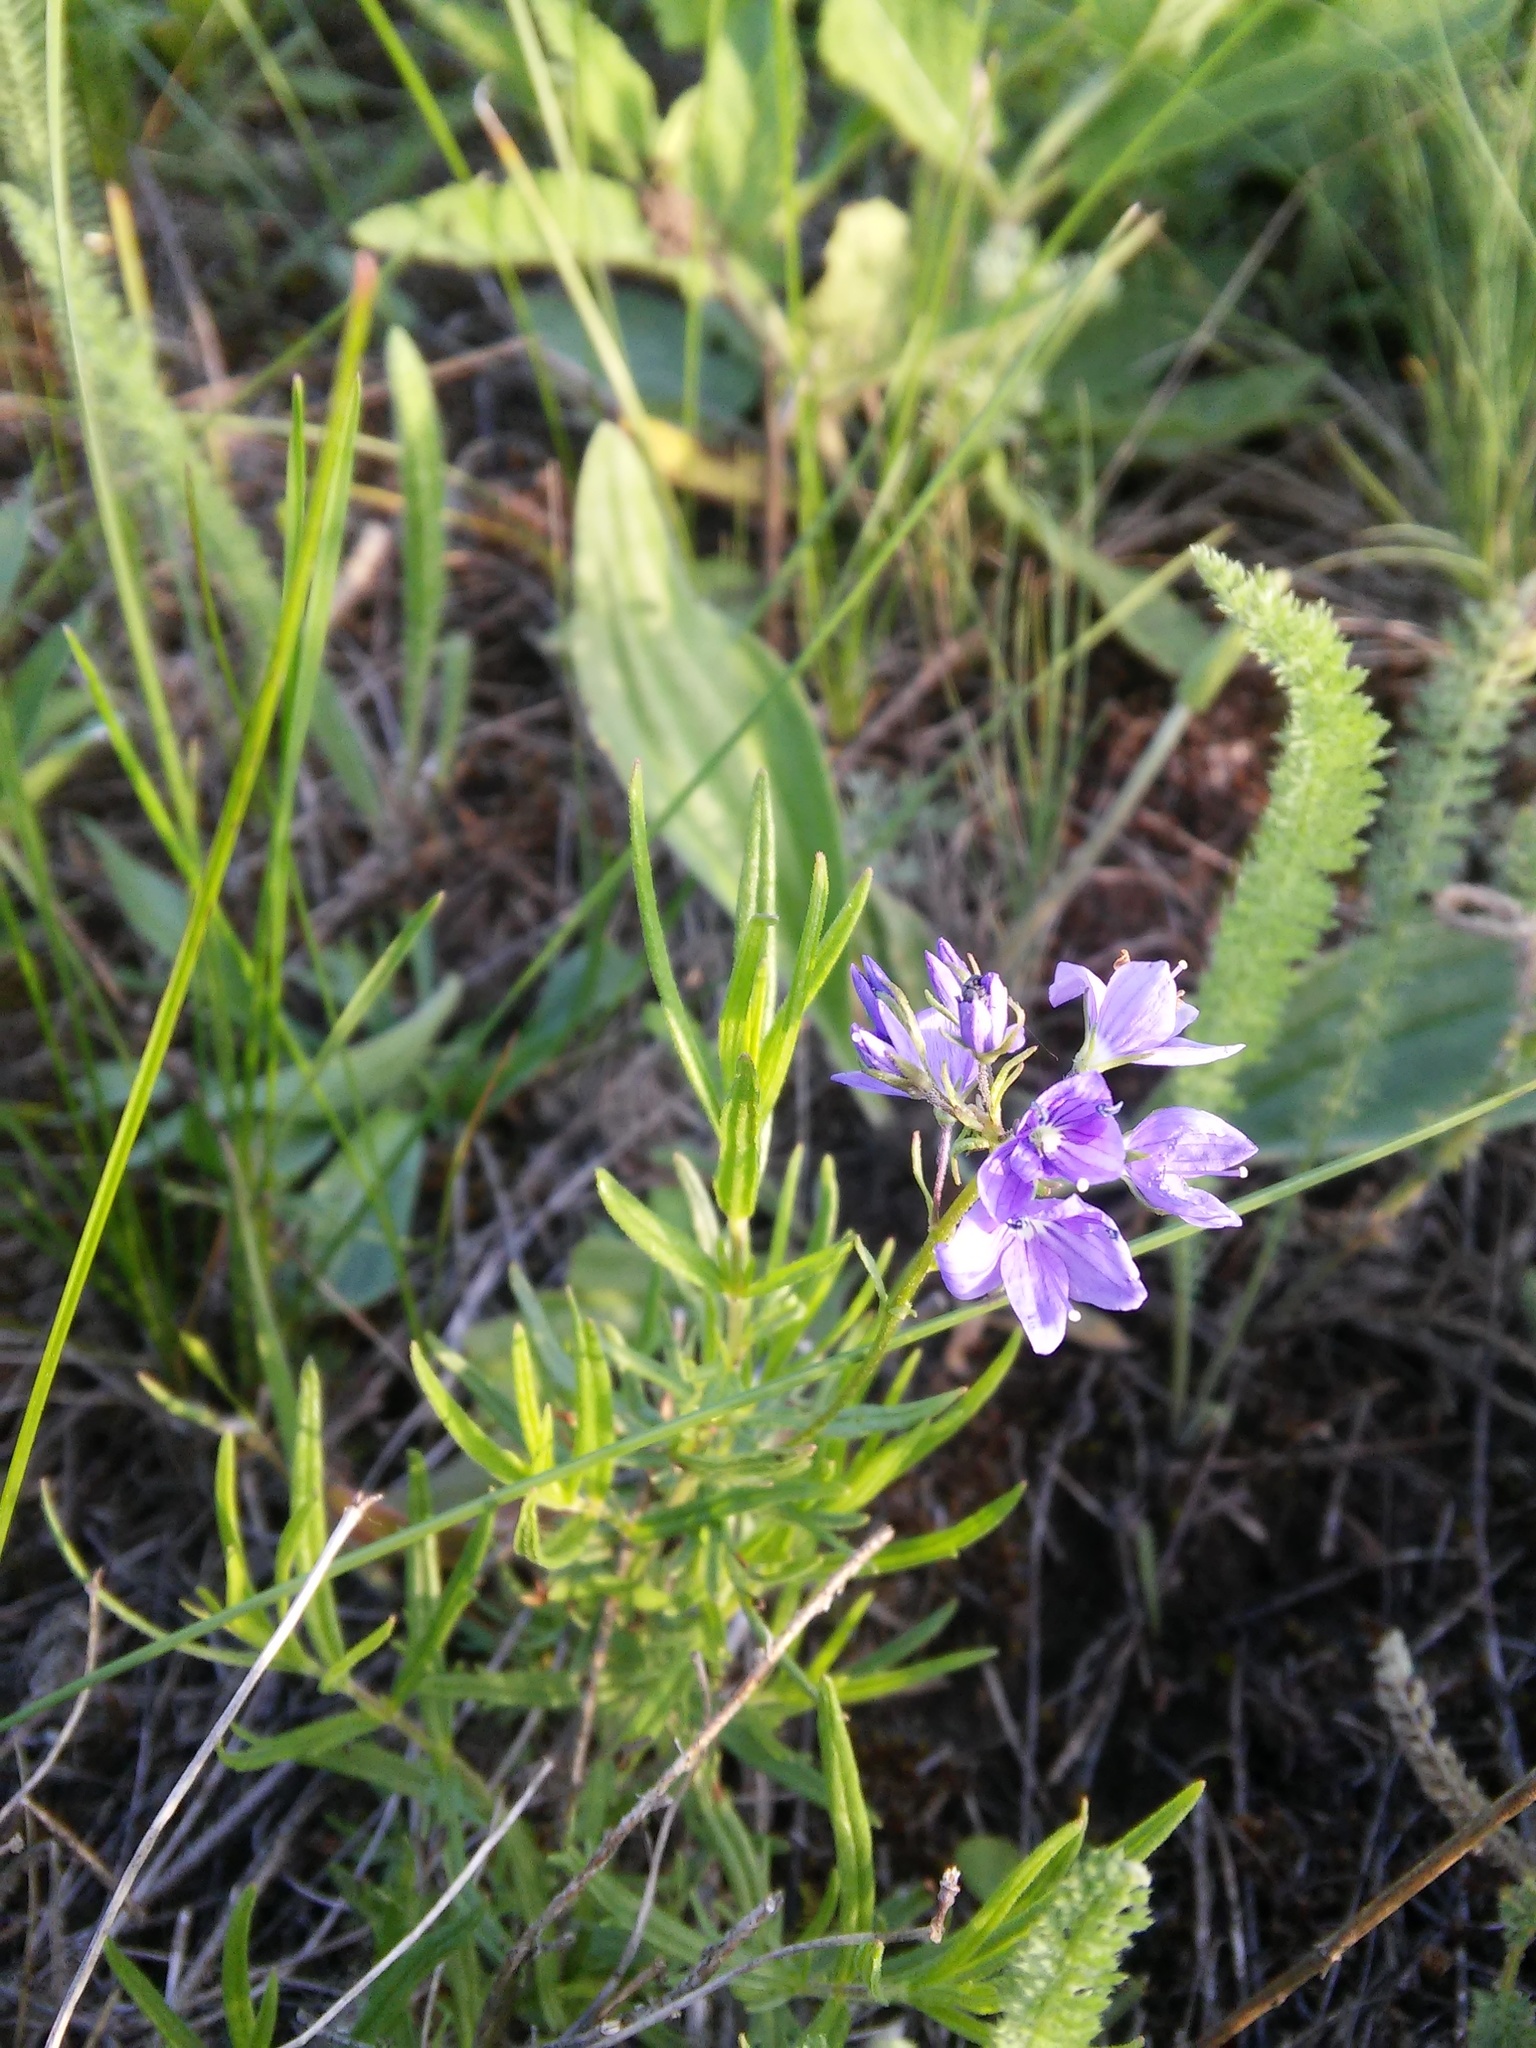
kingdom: Plantae
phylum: Tracheophyta
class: Magnoliopsida
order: Lamiales
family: Plantaginaceae
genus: Veronica
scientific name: Veronica austriaca
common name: Large speedwell
